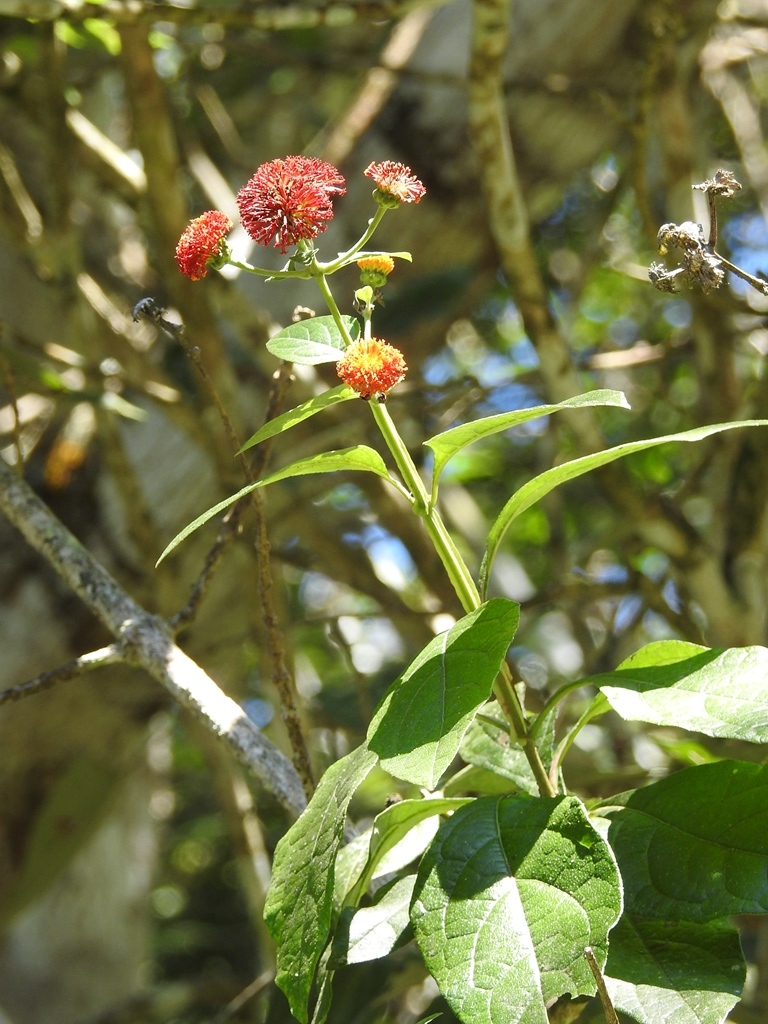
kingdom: Plantae
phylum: Tracheophyta
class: Magnoliopsida
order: Asterales
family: Asteraceae
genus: Verbesina
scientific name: Verbesina ovatifolia
